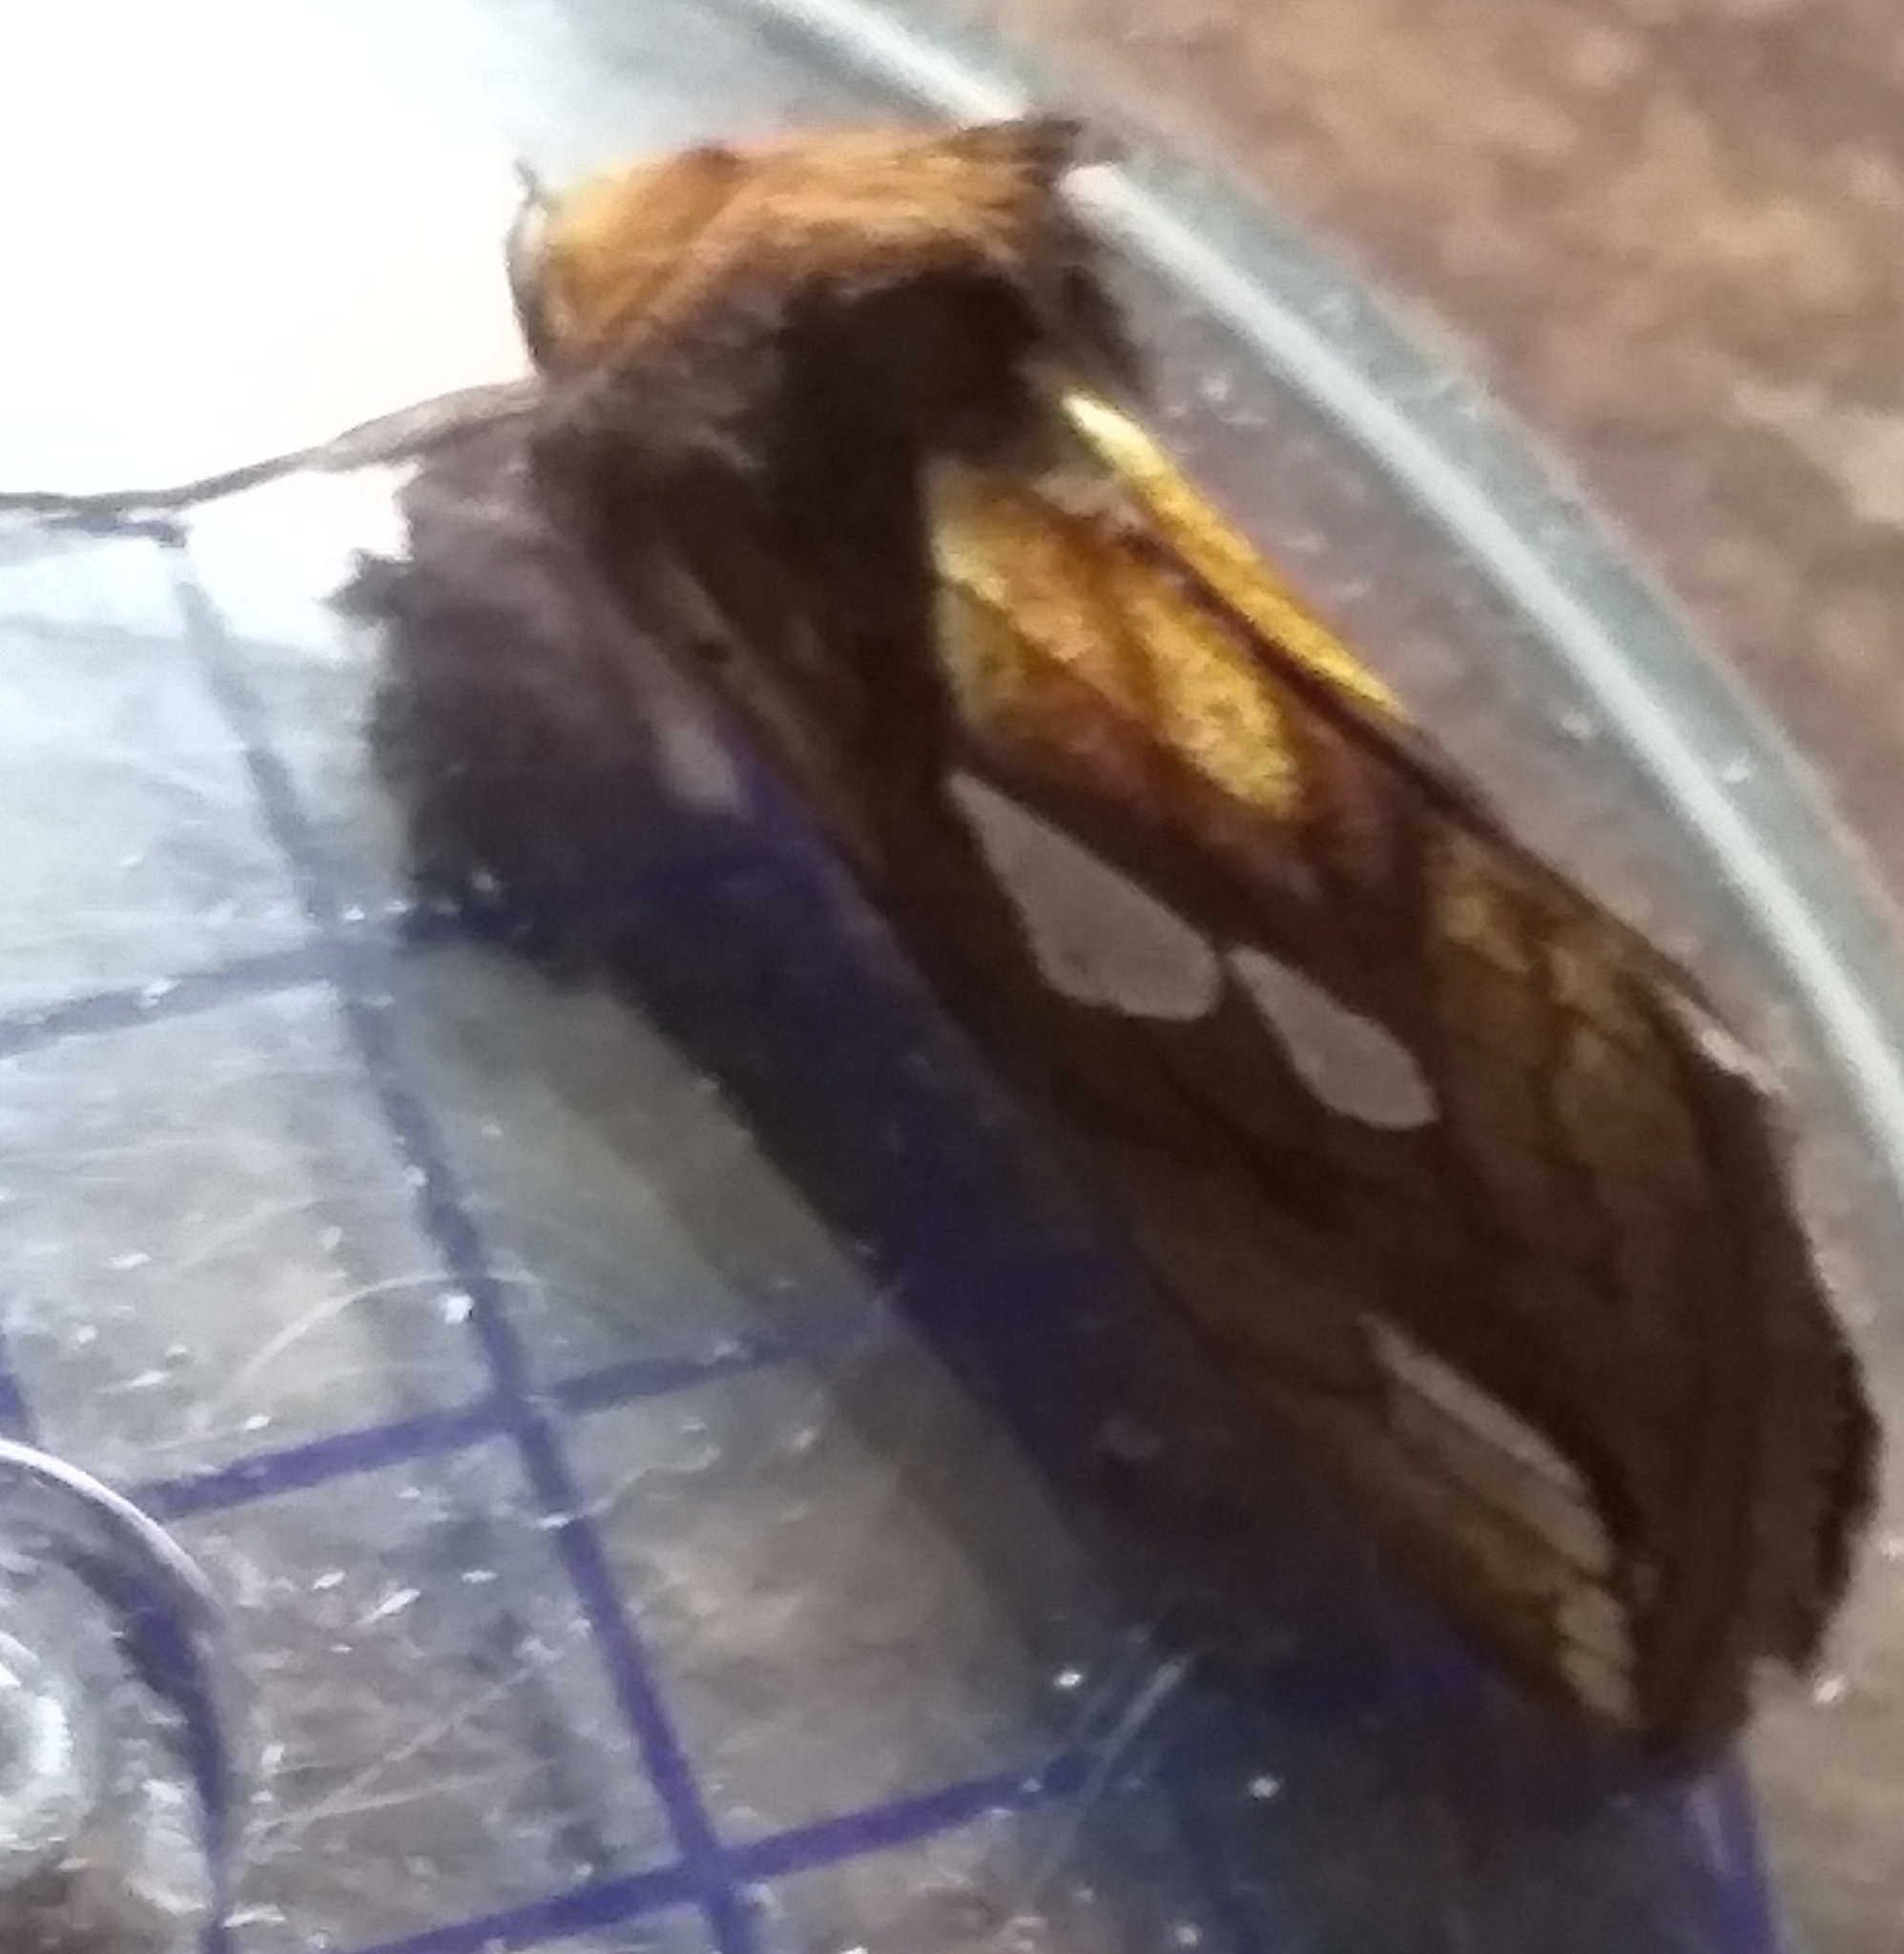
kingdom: Animalia
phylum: Arthropoda
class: Insecta
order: Lepidoptera
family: Noctuidae
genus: Plusia
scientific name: Plusia festucae
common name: Gold spot
